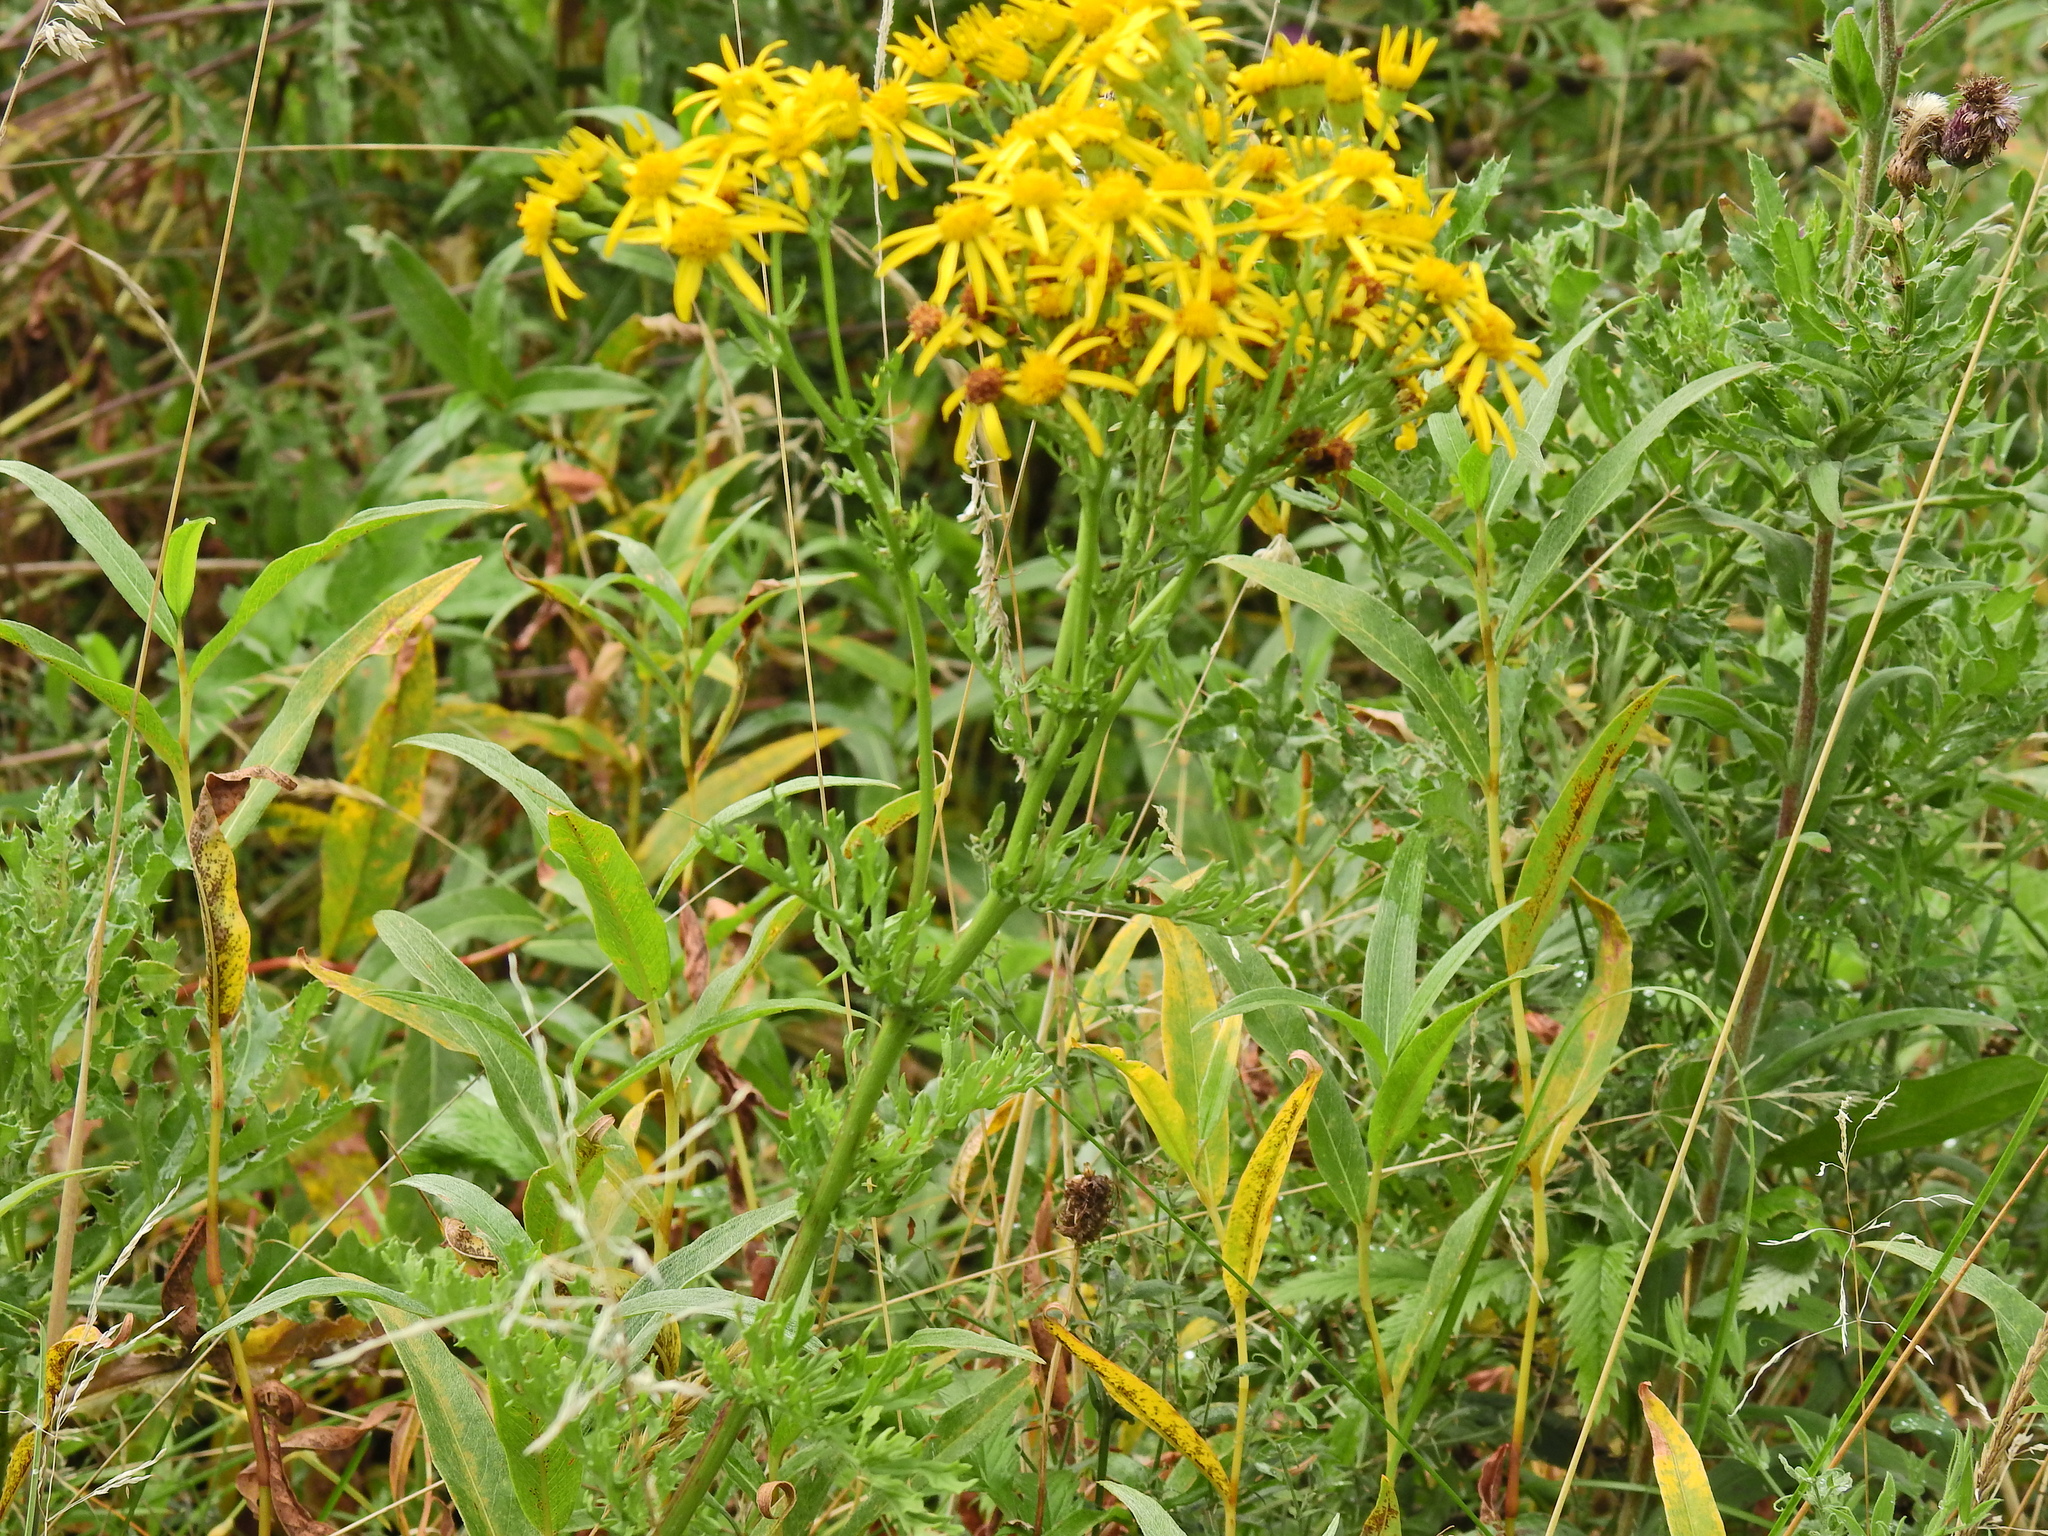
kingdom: Plantae
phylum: Tracheophyta
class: Magnoliopsida
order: Asterales
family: Asteraceae
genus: Jacobaea
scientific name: Jacobaea vulgaris
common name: Stinking willie
